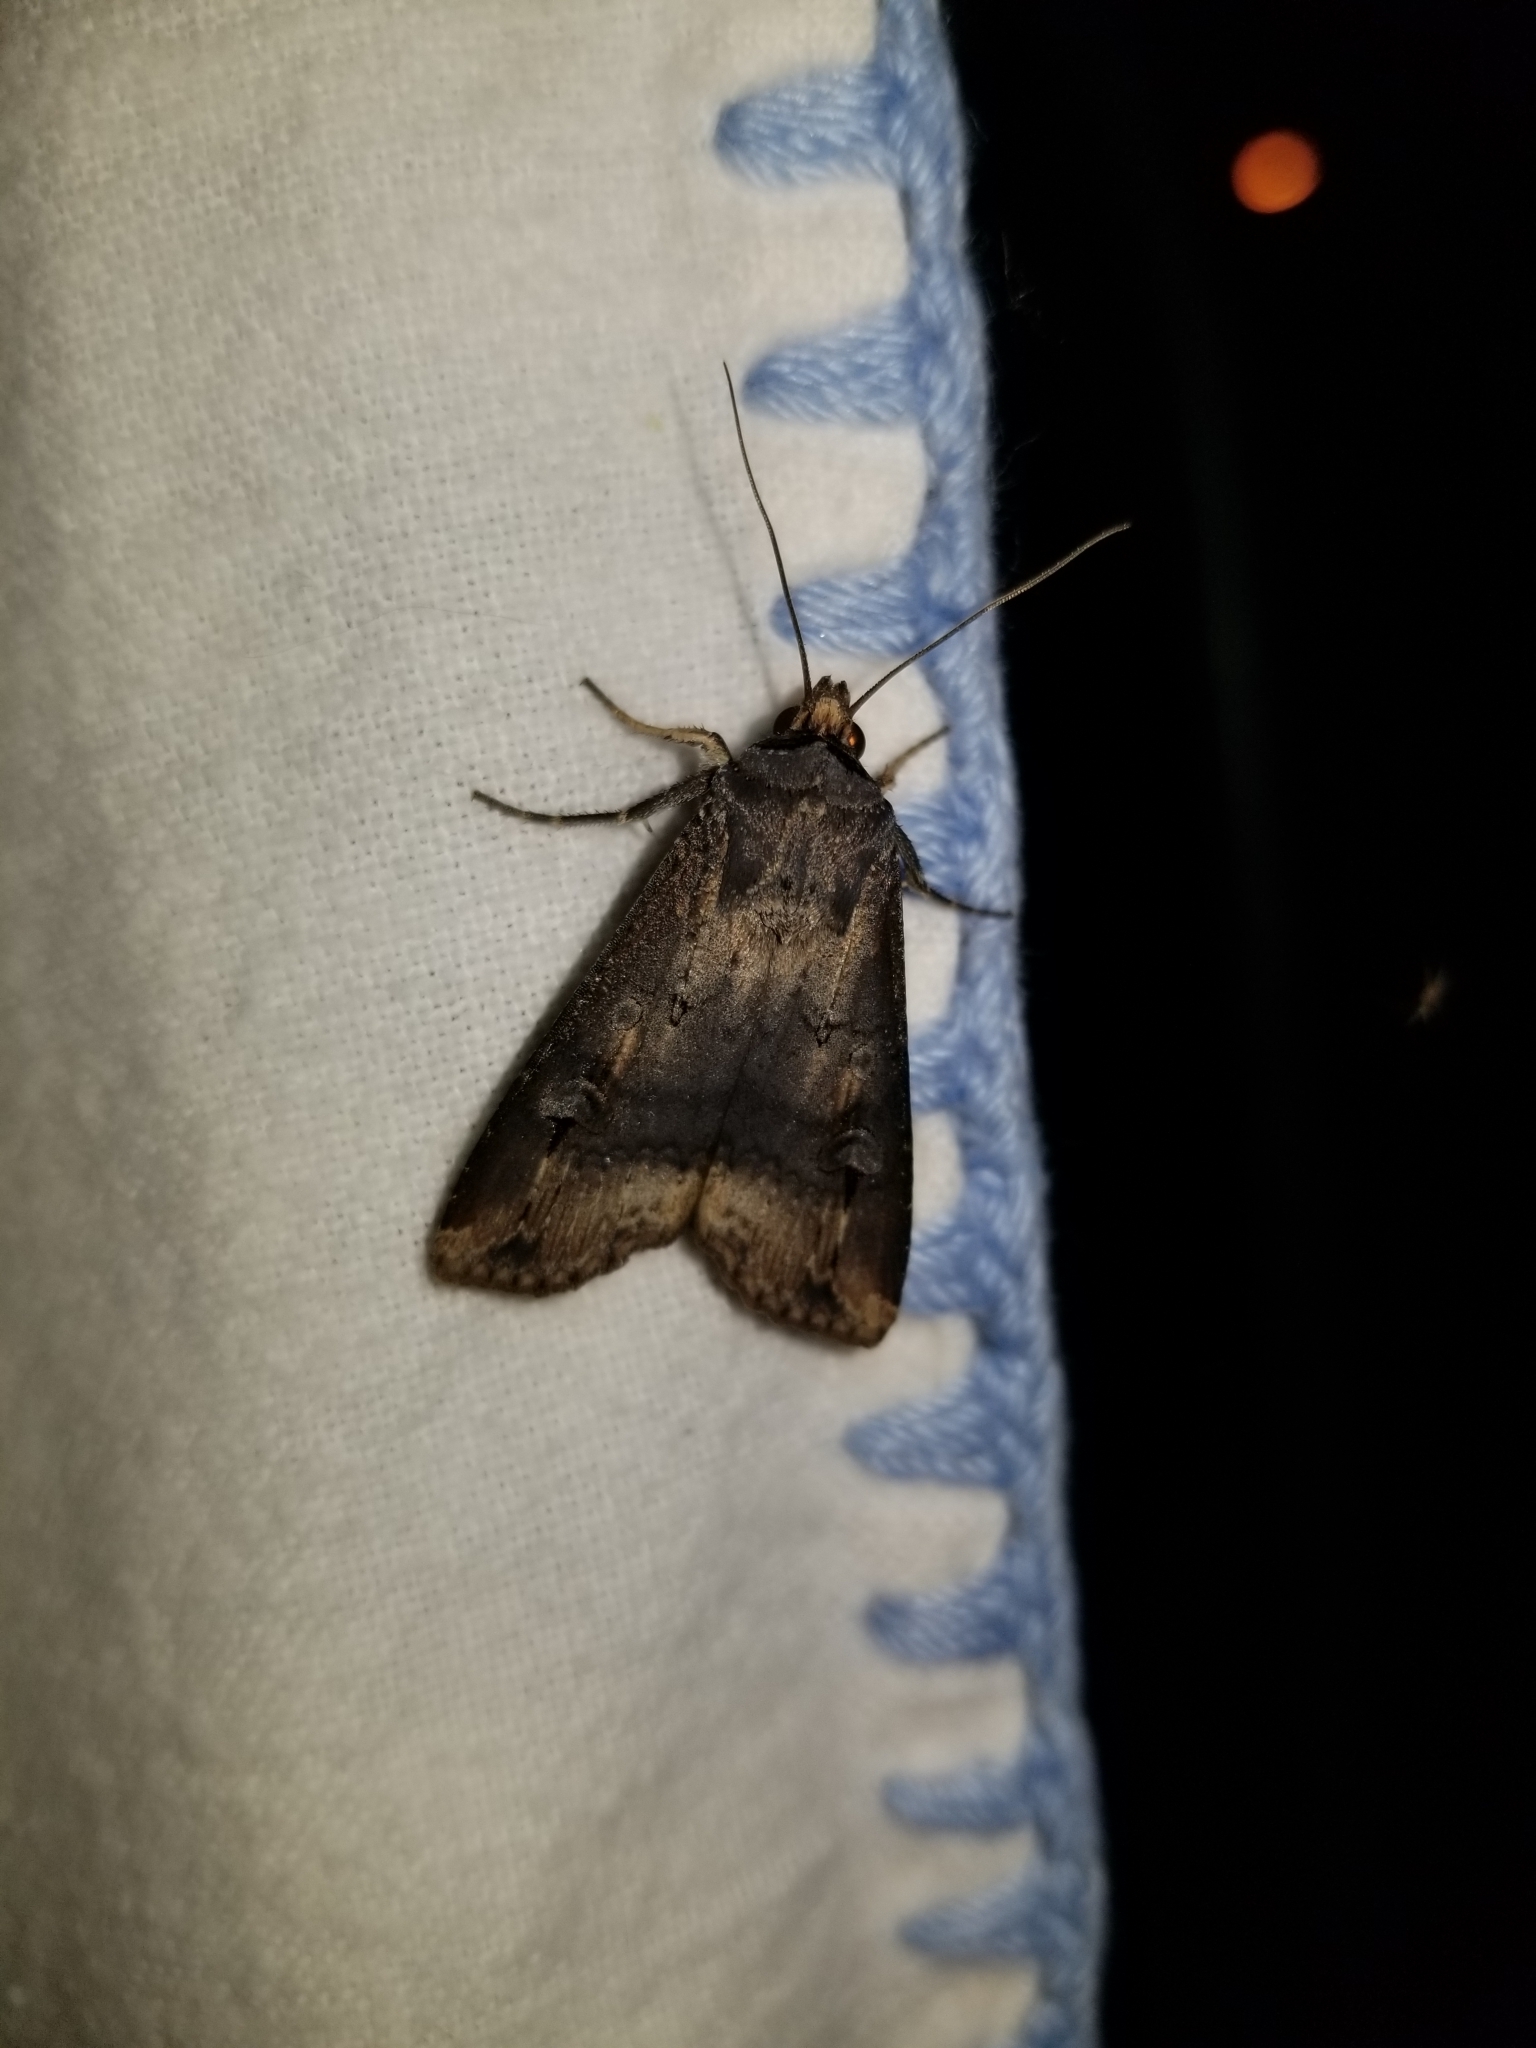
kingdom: Animalia
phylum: Arthropoda
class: Insecta
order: Lepidoptera
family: Noctuidae
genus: Agrotis
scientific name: Agrotis ipsilon
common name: Dark sword-grass
